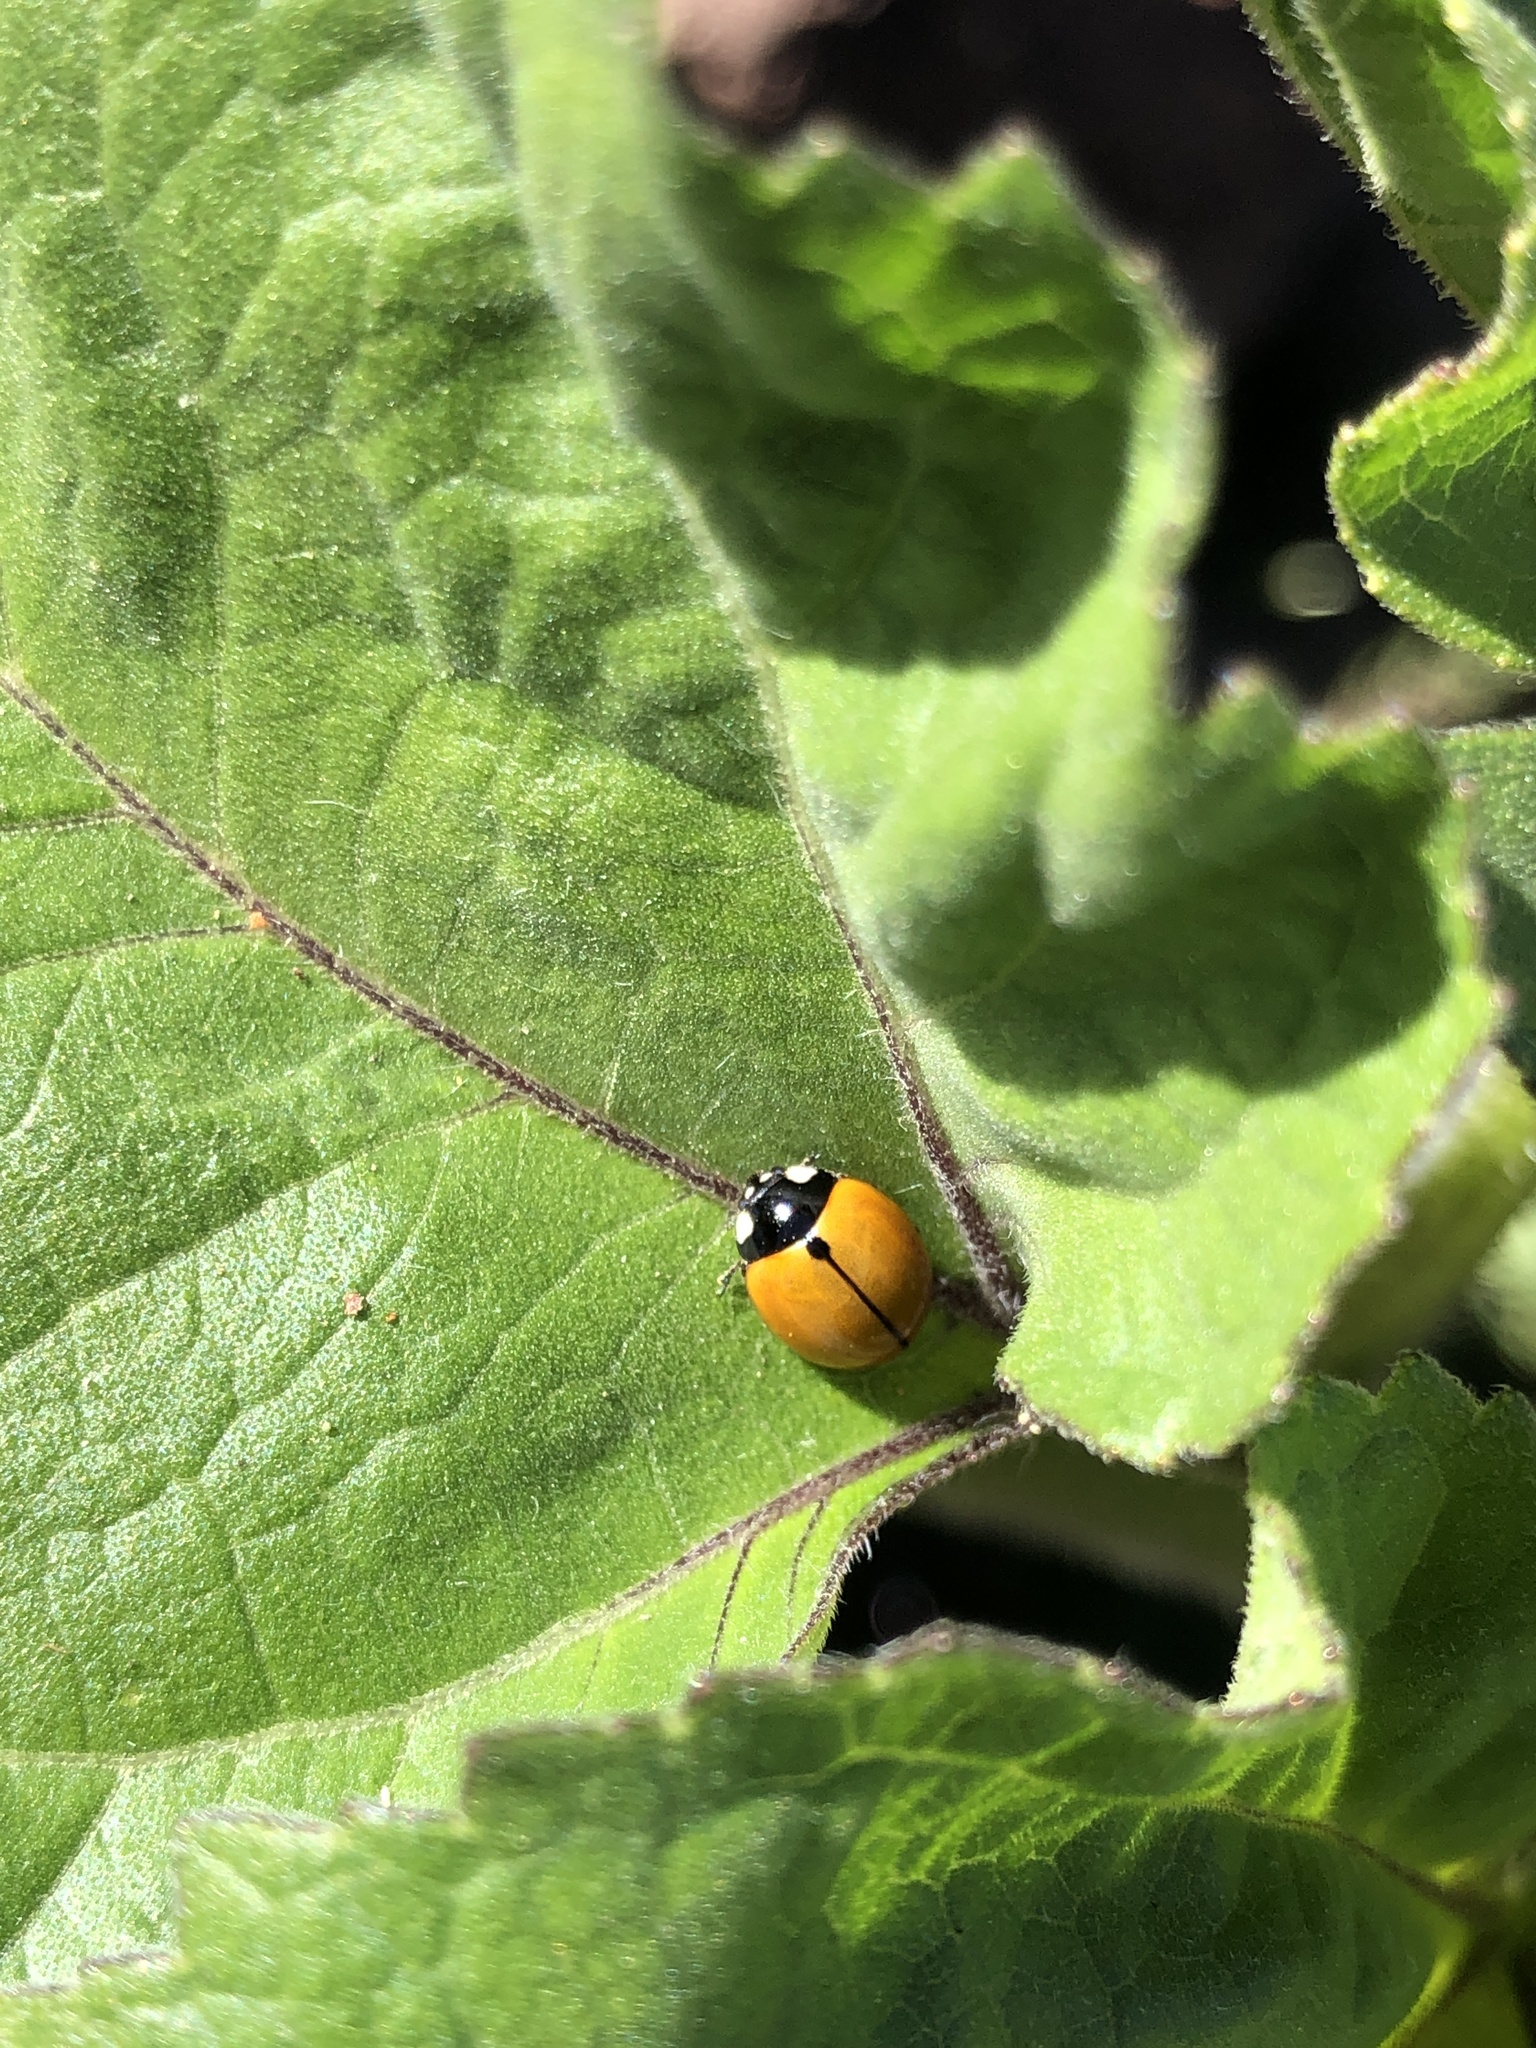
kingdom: Animalia
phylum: Arthropoda
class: Insecta
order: Coleoptera
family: Coccinellidae
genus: Coccinella
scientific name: Coccinella californica
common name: Lady beetle
